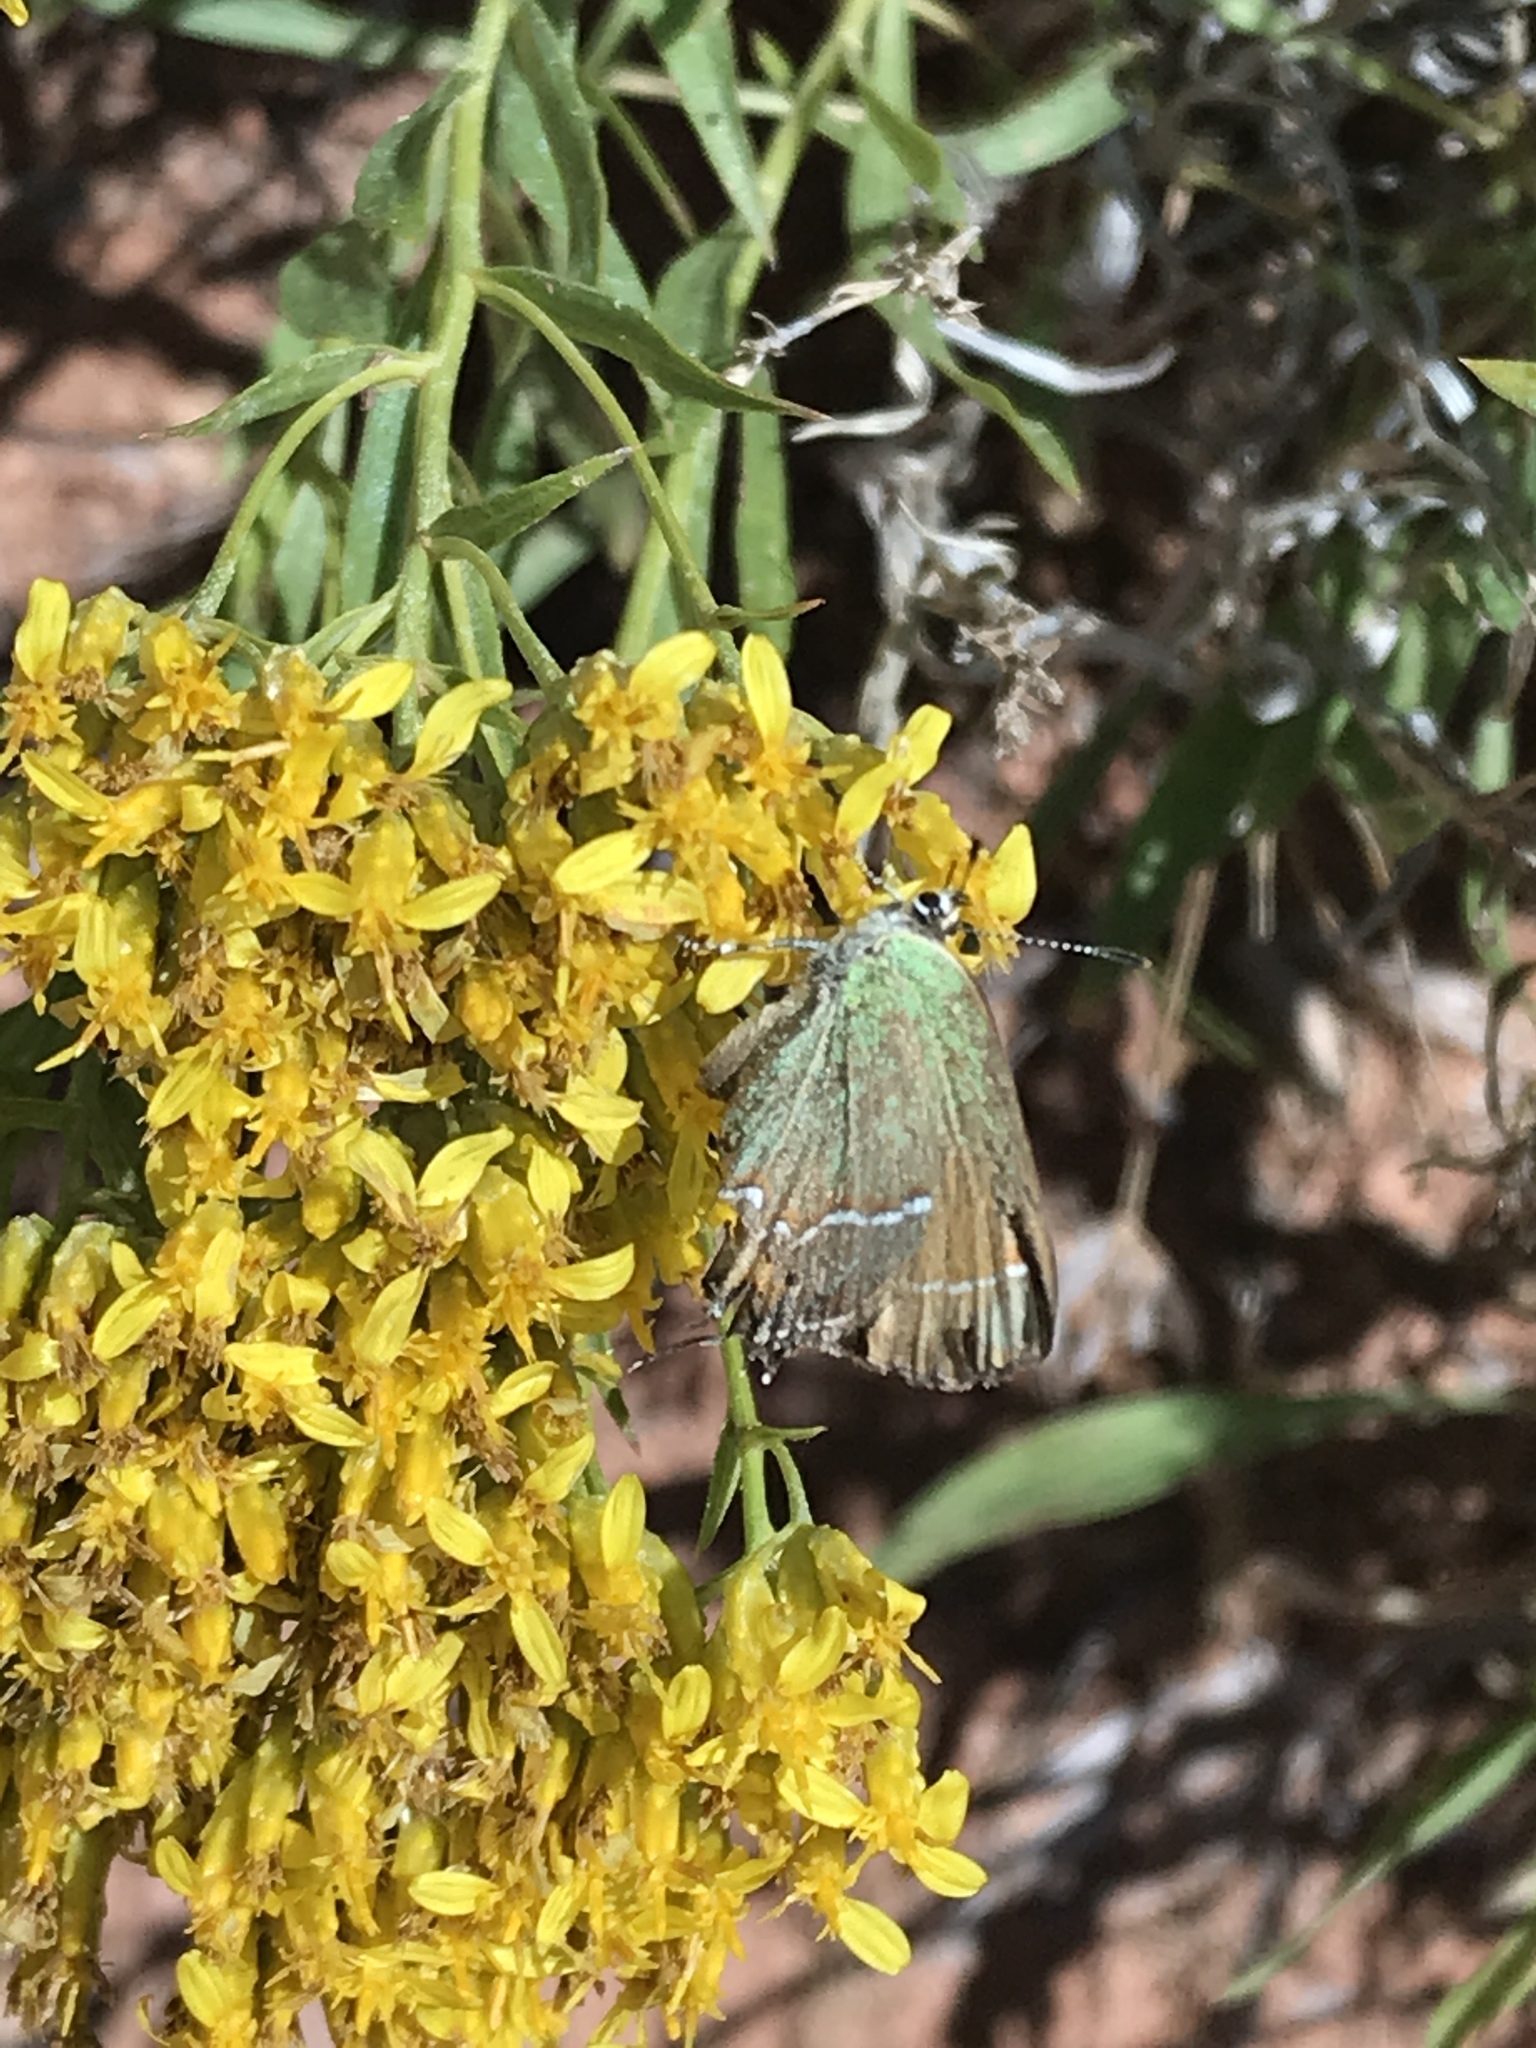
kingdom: Animalia
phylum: Arthropoda
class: Insecta
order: Lepidoptera
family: Lycaenidae
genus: Mitoura
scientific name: Mitoura siva
